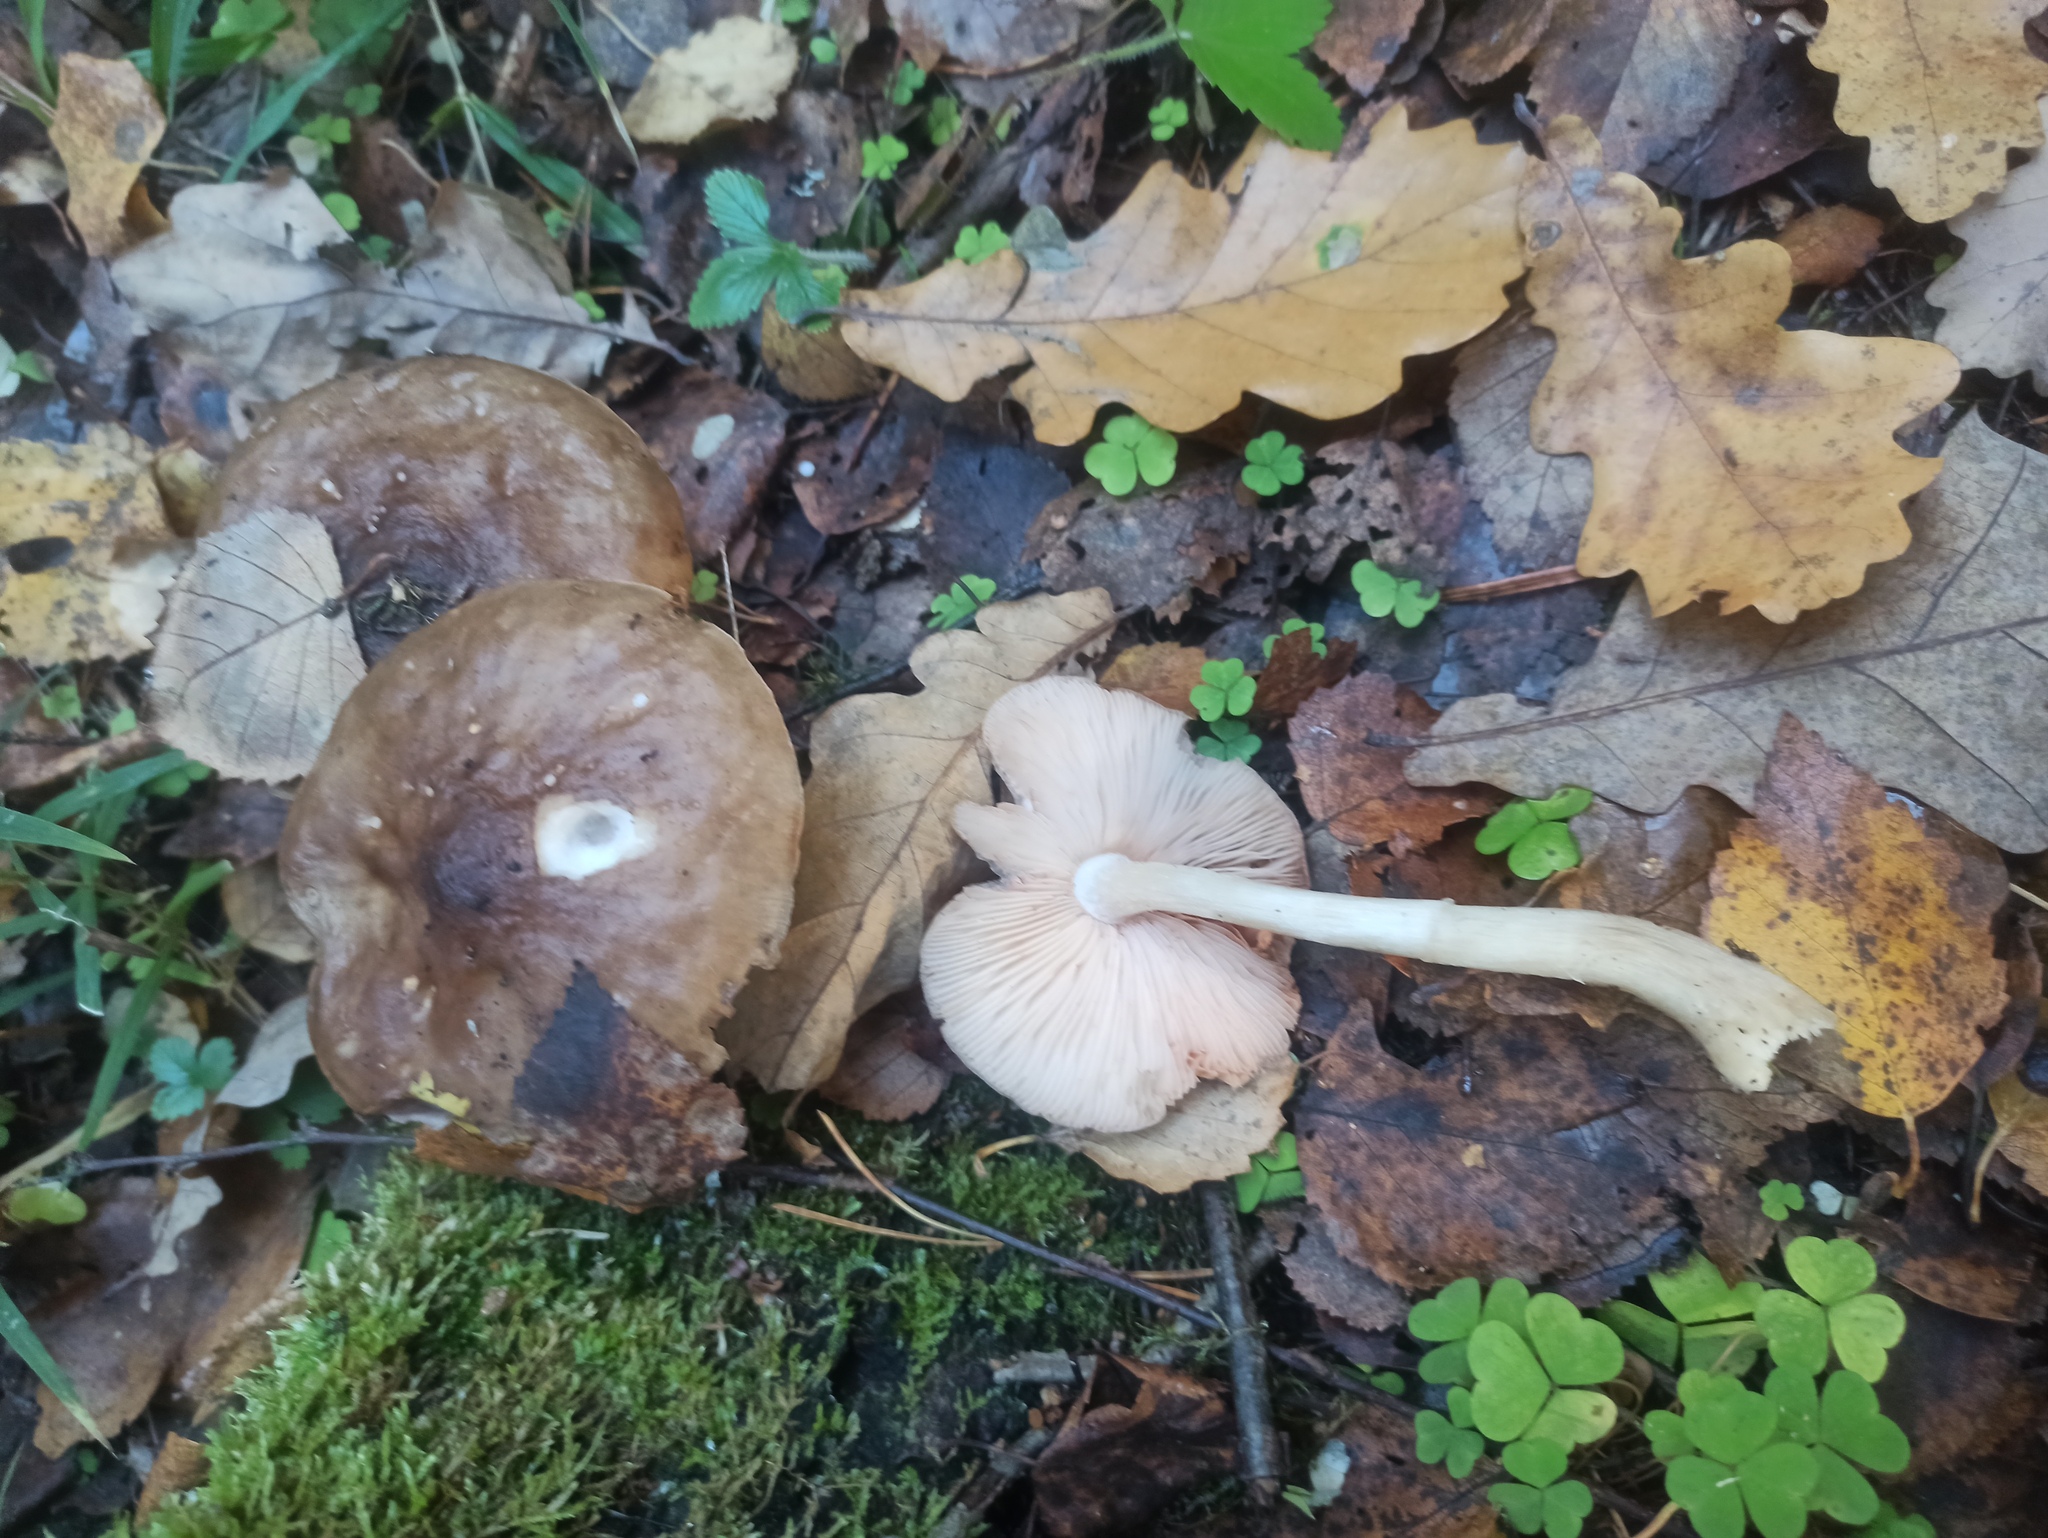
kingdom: Fungi
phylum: Basidiomycota
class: Agaricomycetes
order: Agaricales
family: Pluteaceae
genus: Pluteus
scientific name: Pluteus cervinus
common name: Deer shield
